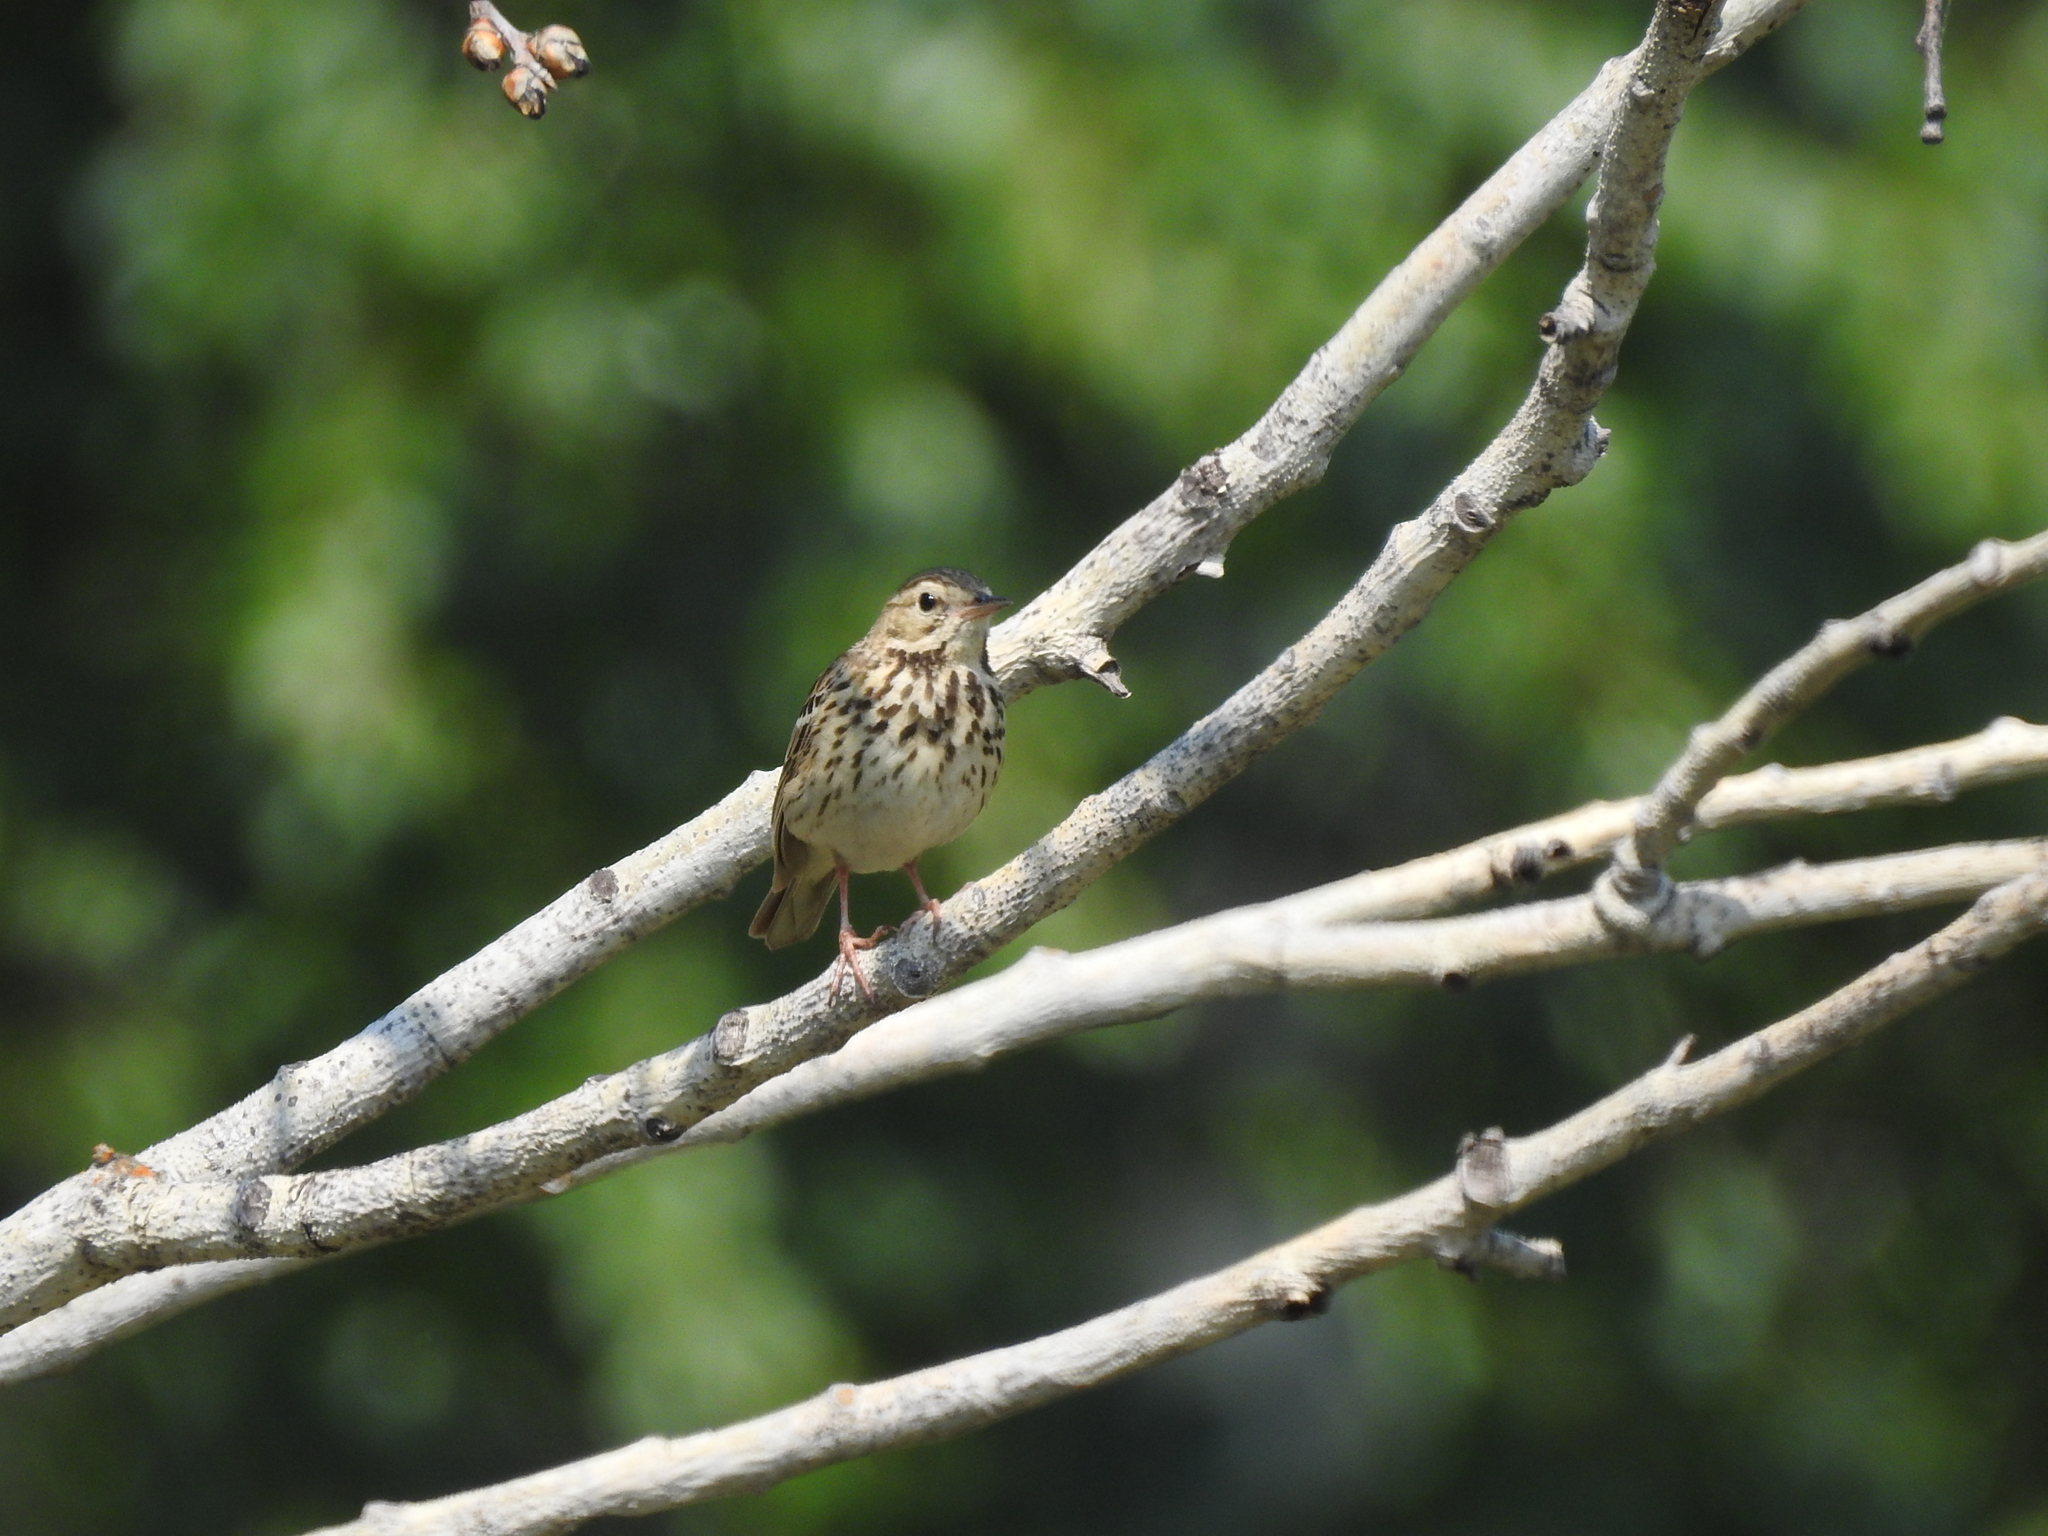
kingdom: Animalia
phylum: Chordata
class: Aves
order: Passeriformes
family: Motacillidae
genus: Anthus
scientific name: Anthus trivialis
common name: Tree pipit
